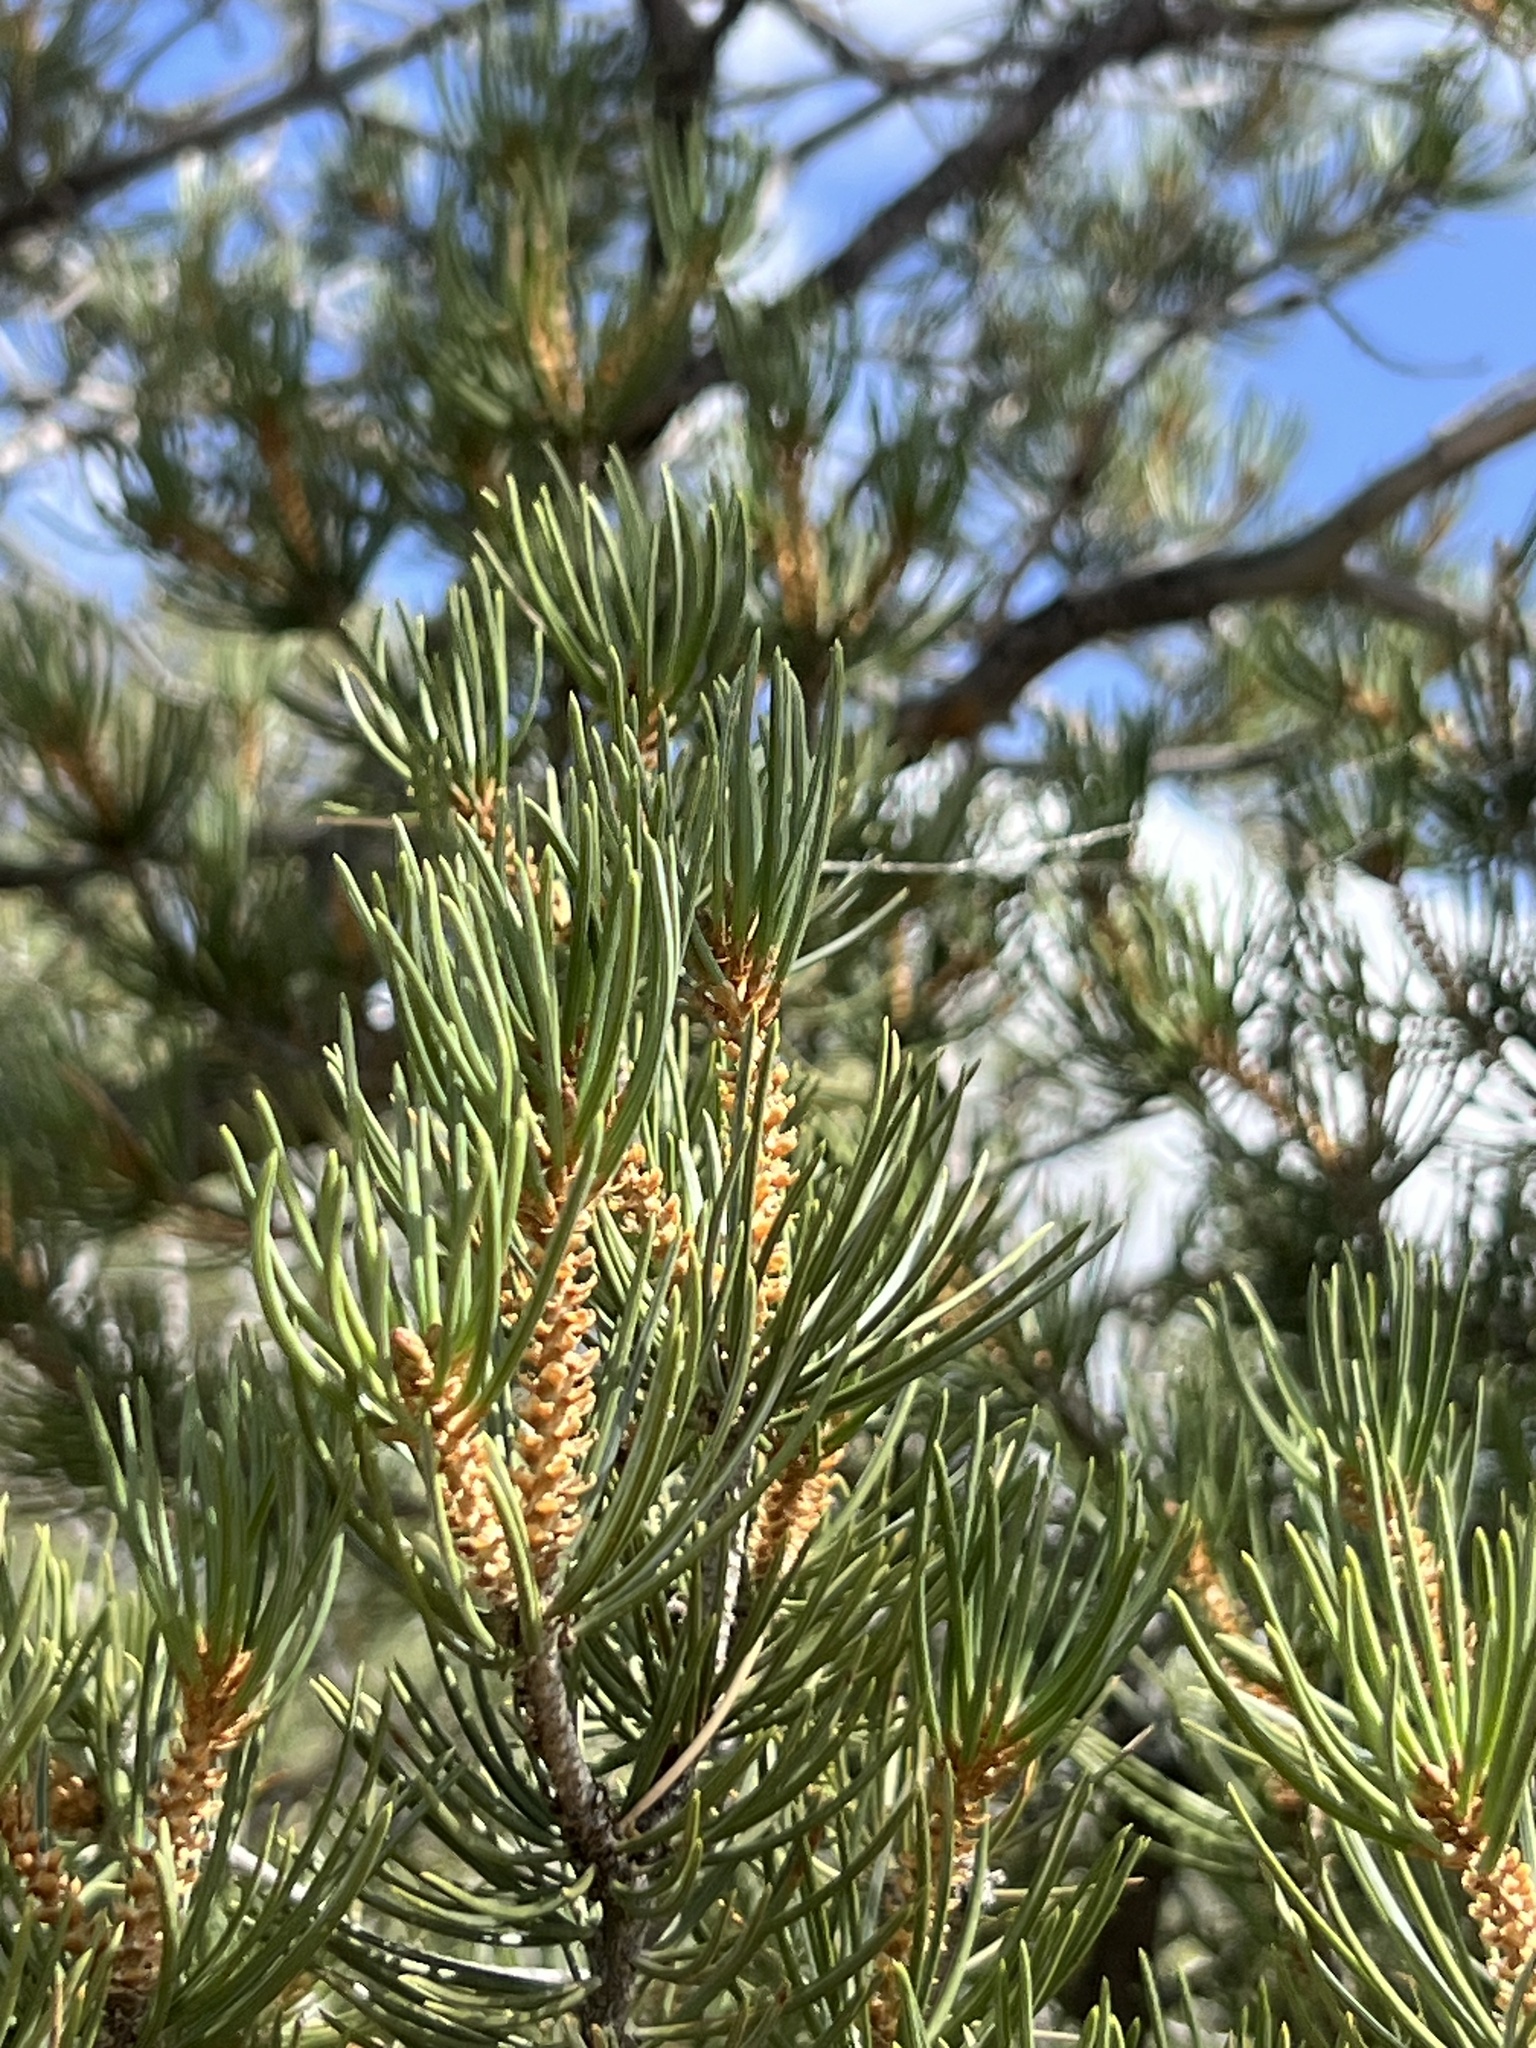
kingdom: Plantae
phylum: Tracheophyta
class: Pinopsida
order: Pinales
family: Pinaceae
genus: Pinus
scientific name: Pinus monophylla
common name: One-leaved nut pine
